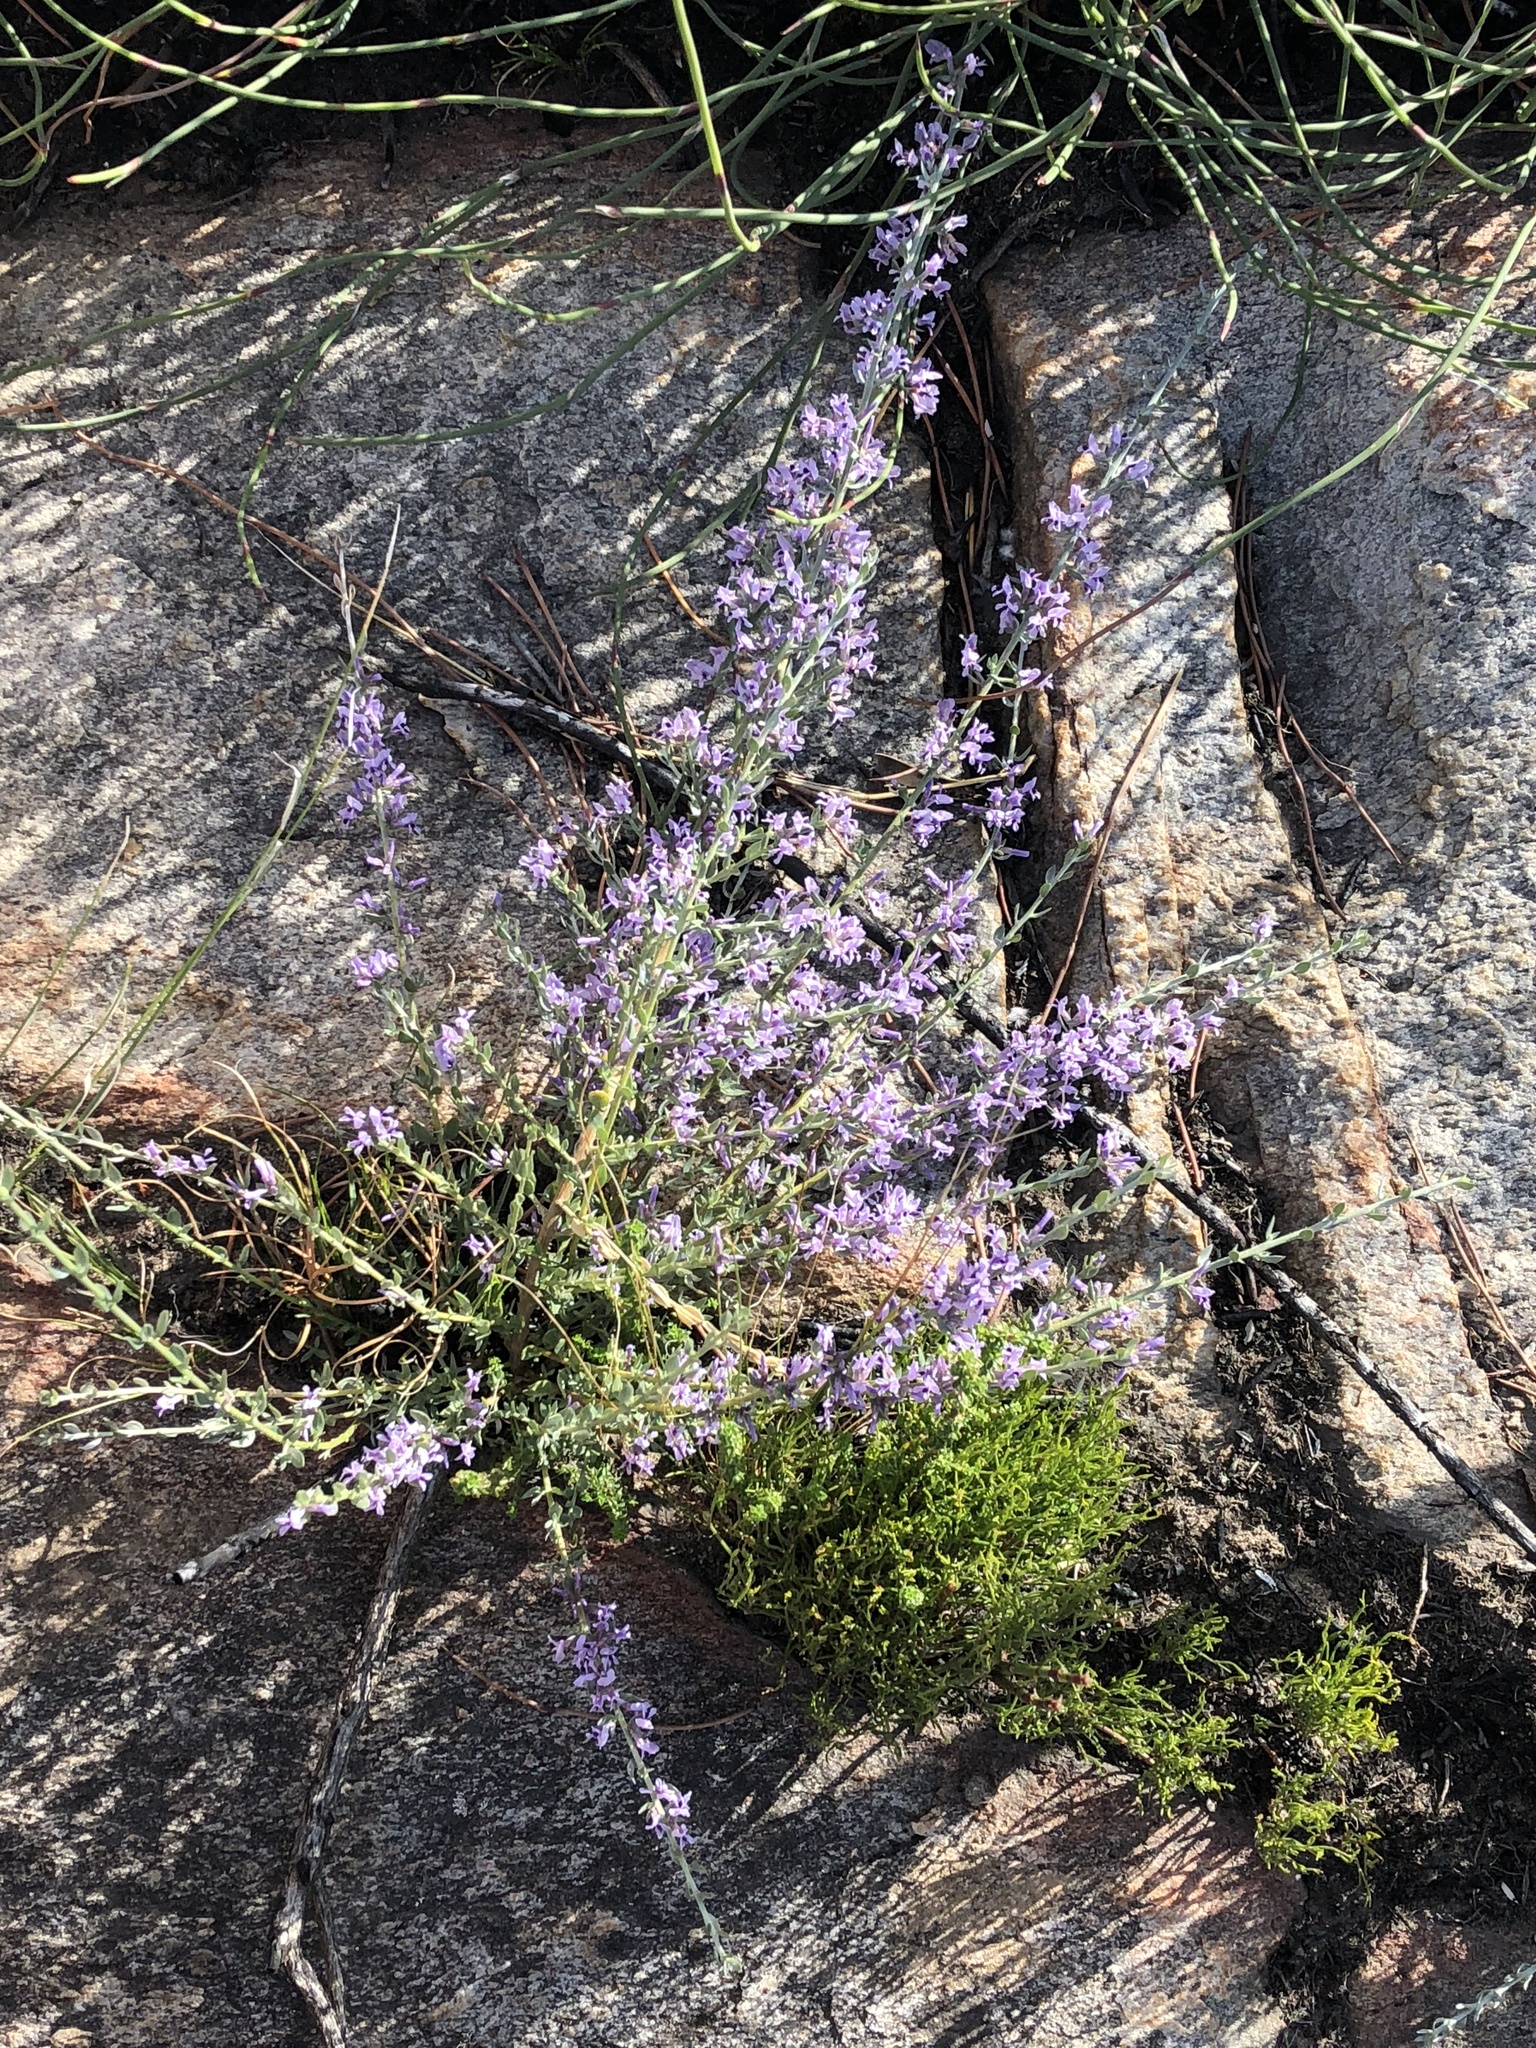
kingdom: Plantae
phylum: Tracheophyta
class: Magnoliopsida
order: Fabales
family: Fabaceae
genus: Amphithalea
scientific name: Amphithalea violacea
